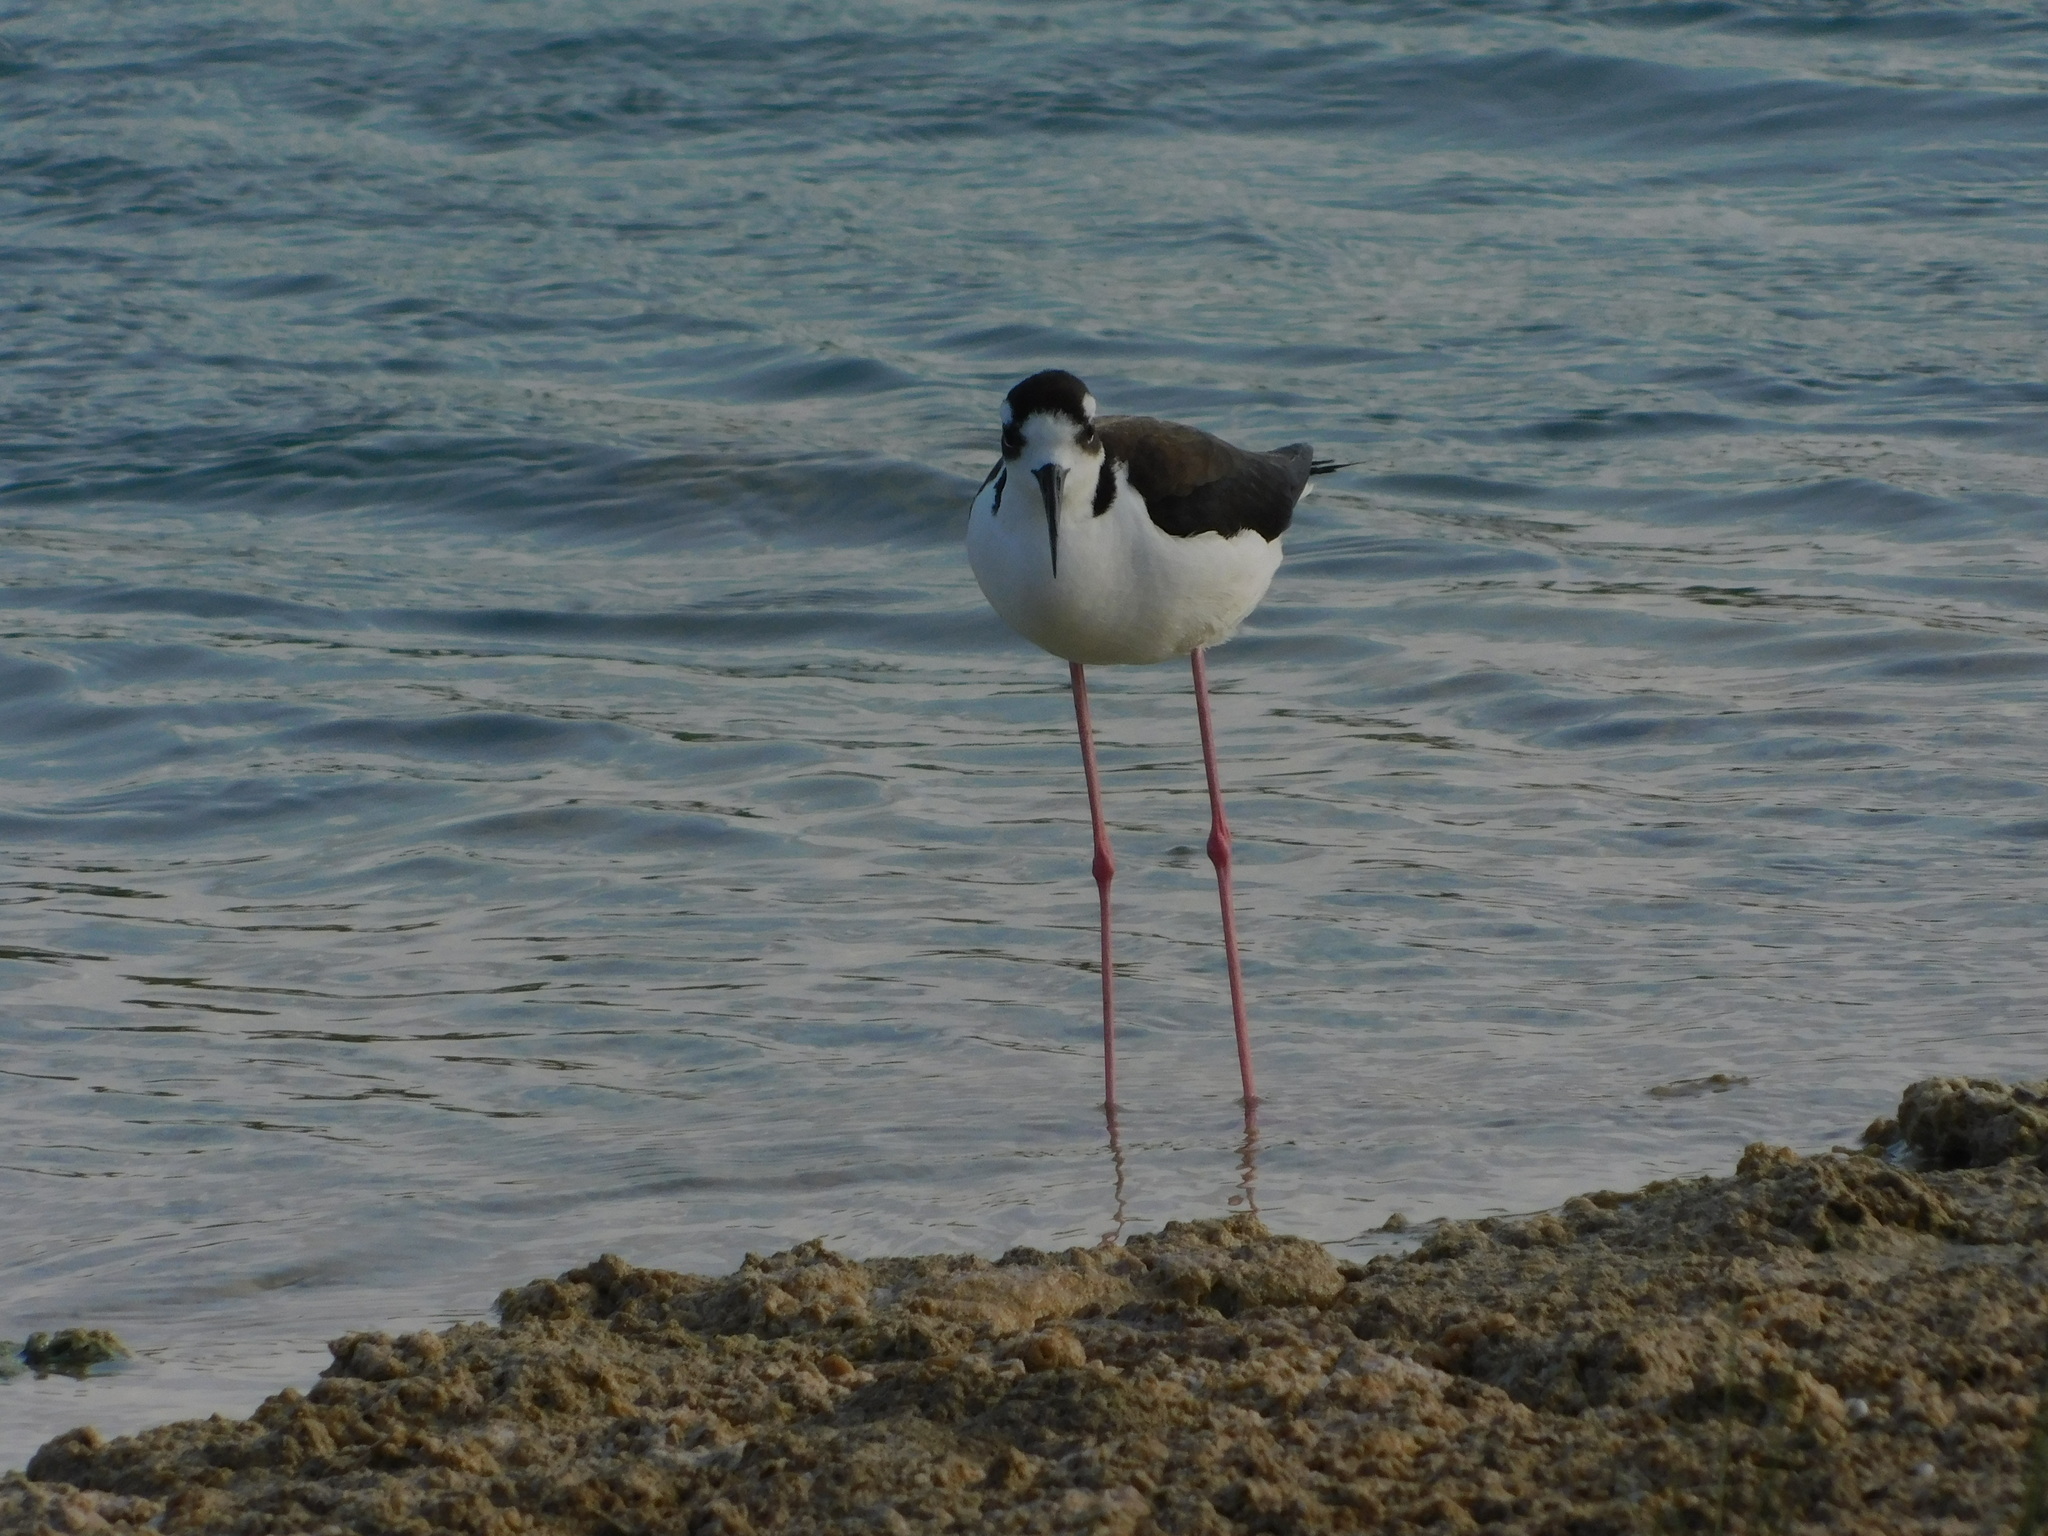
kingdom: Animalia
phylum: Chordata
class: Aves
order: Charadriiformes
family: Recurvirostridae
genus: Himantopus
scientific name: Himantopus mexicanus
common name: Black-necked stilt
